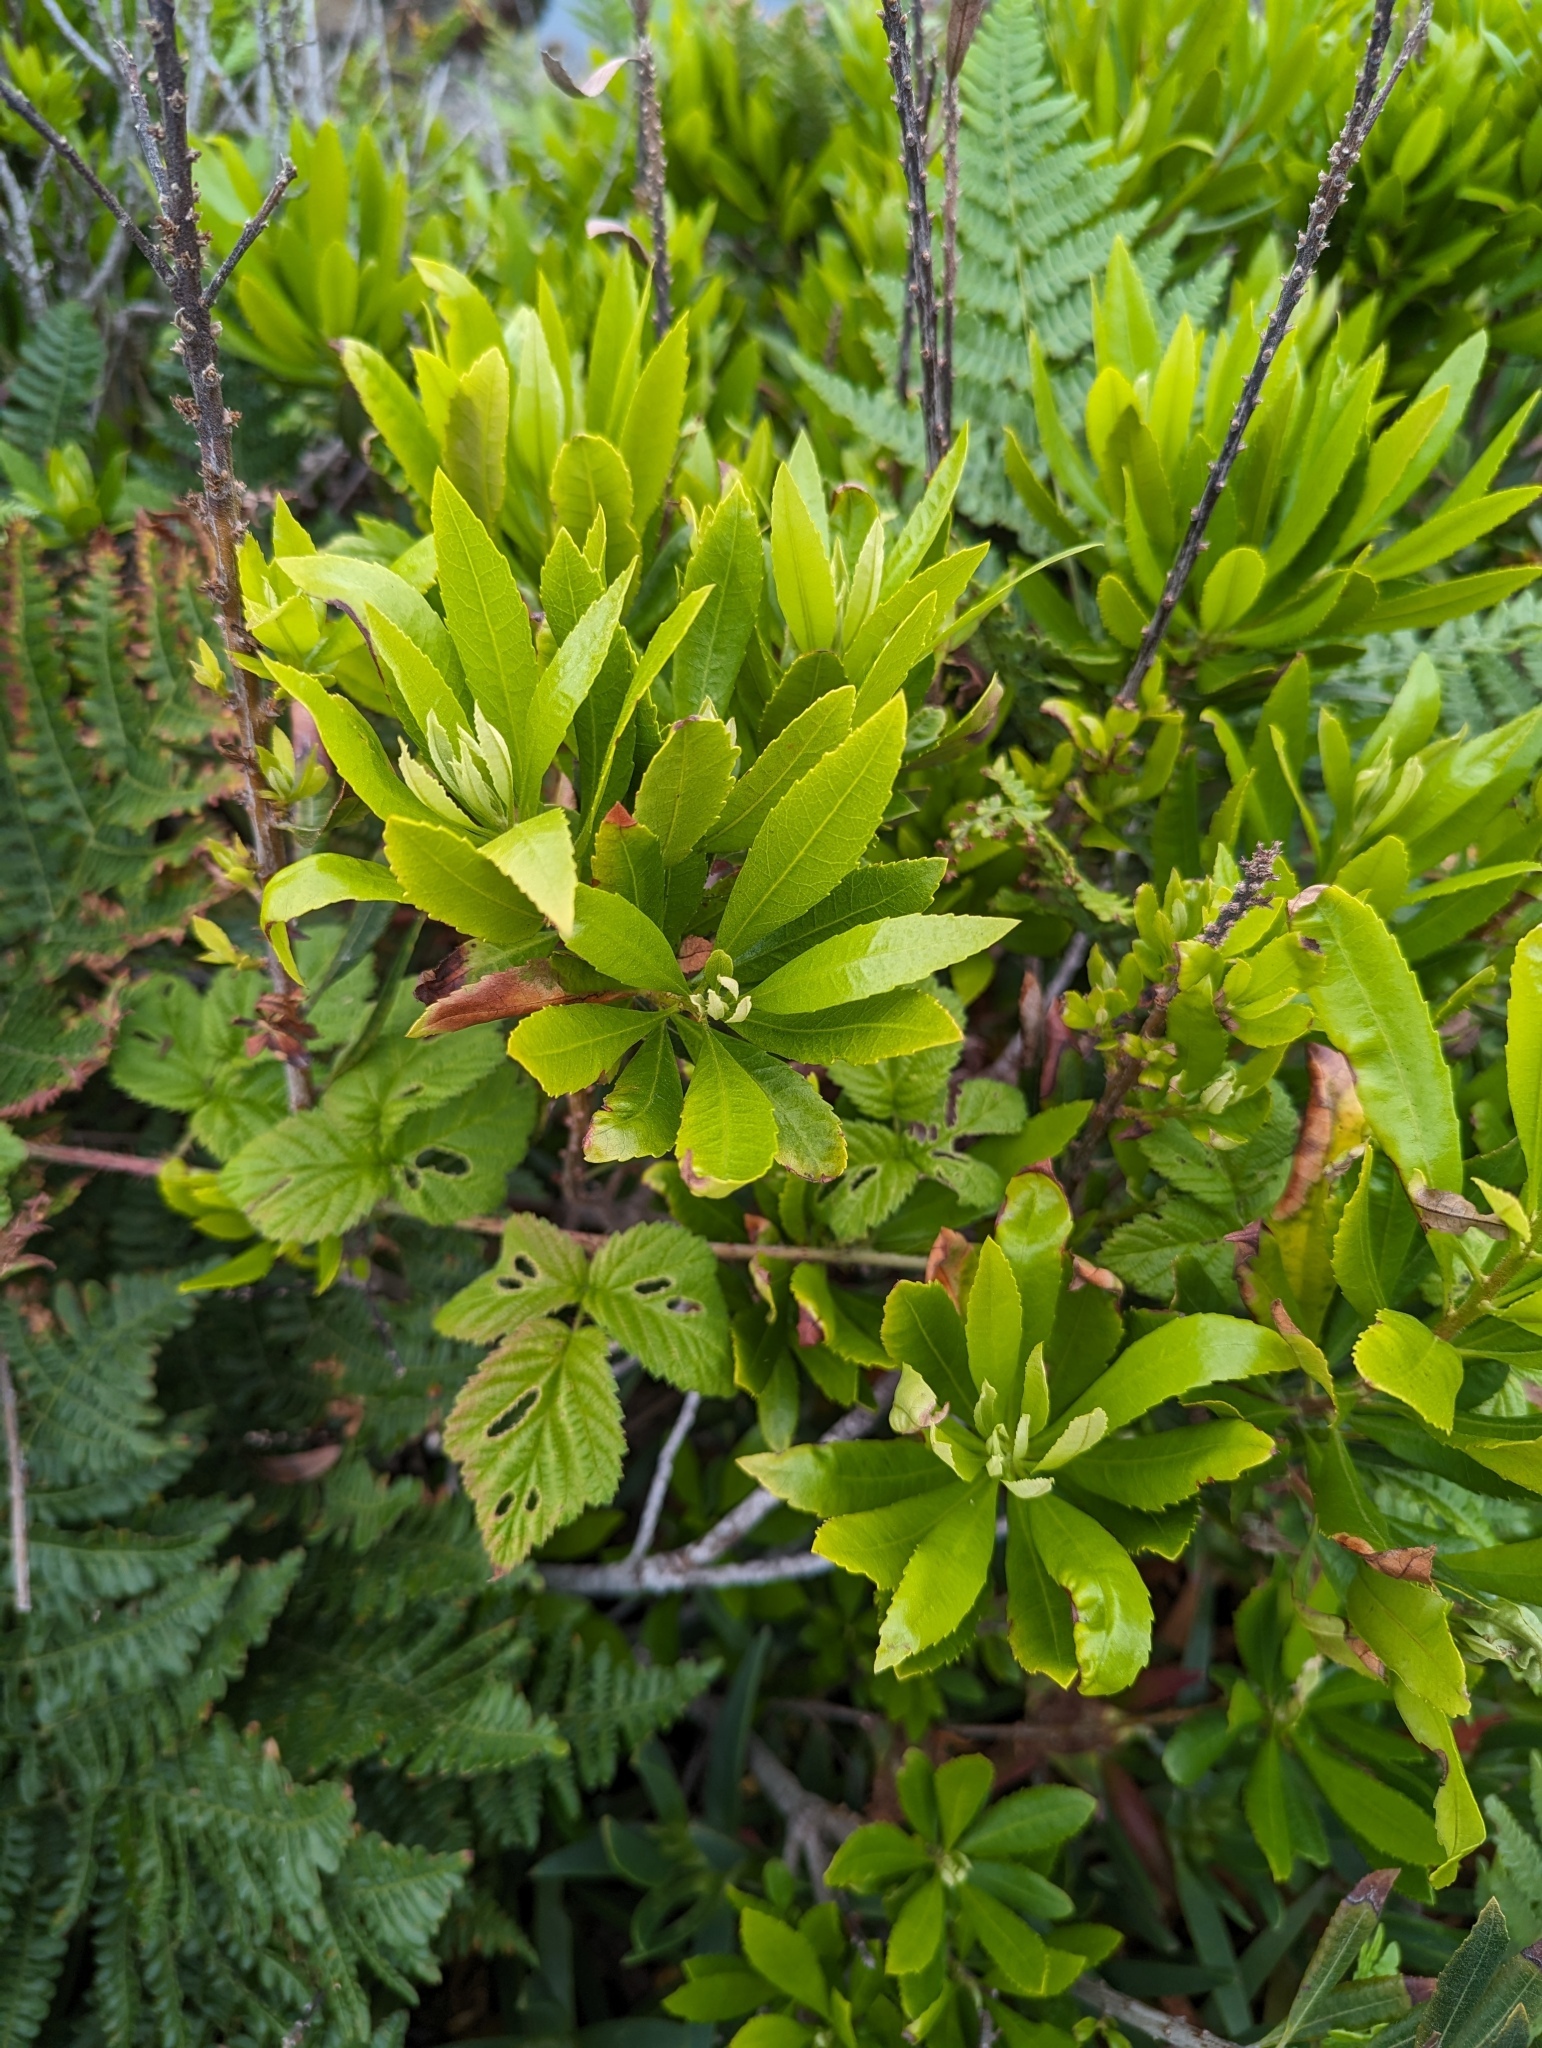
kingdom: Plantae
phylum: Tracheophyta
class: Magnoliopsida
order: Fagales
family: Myricaceae
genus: Morella
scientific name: Morella californica
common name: California wax-myrtle
